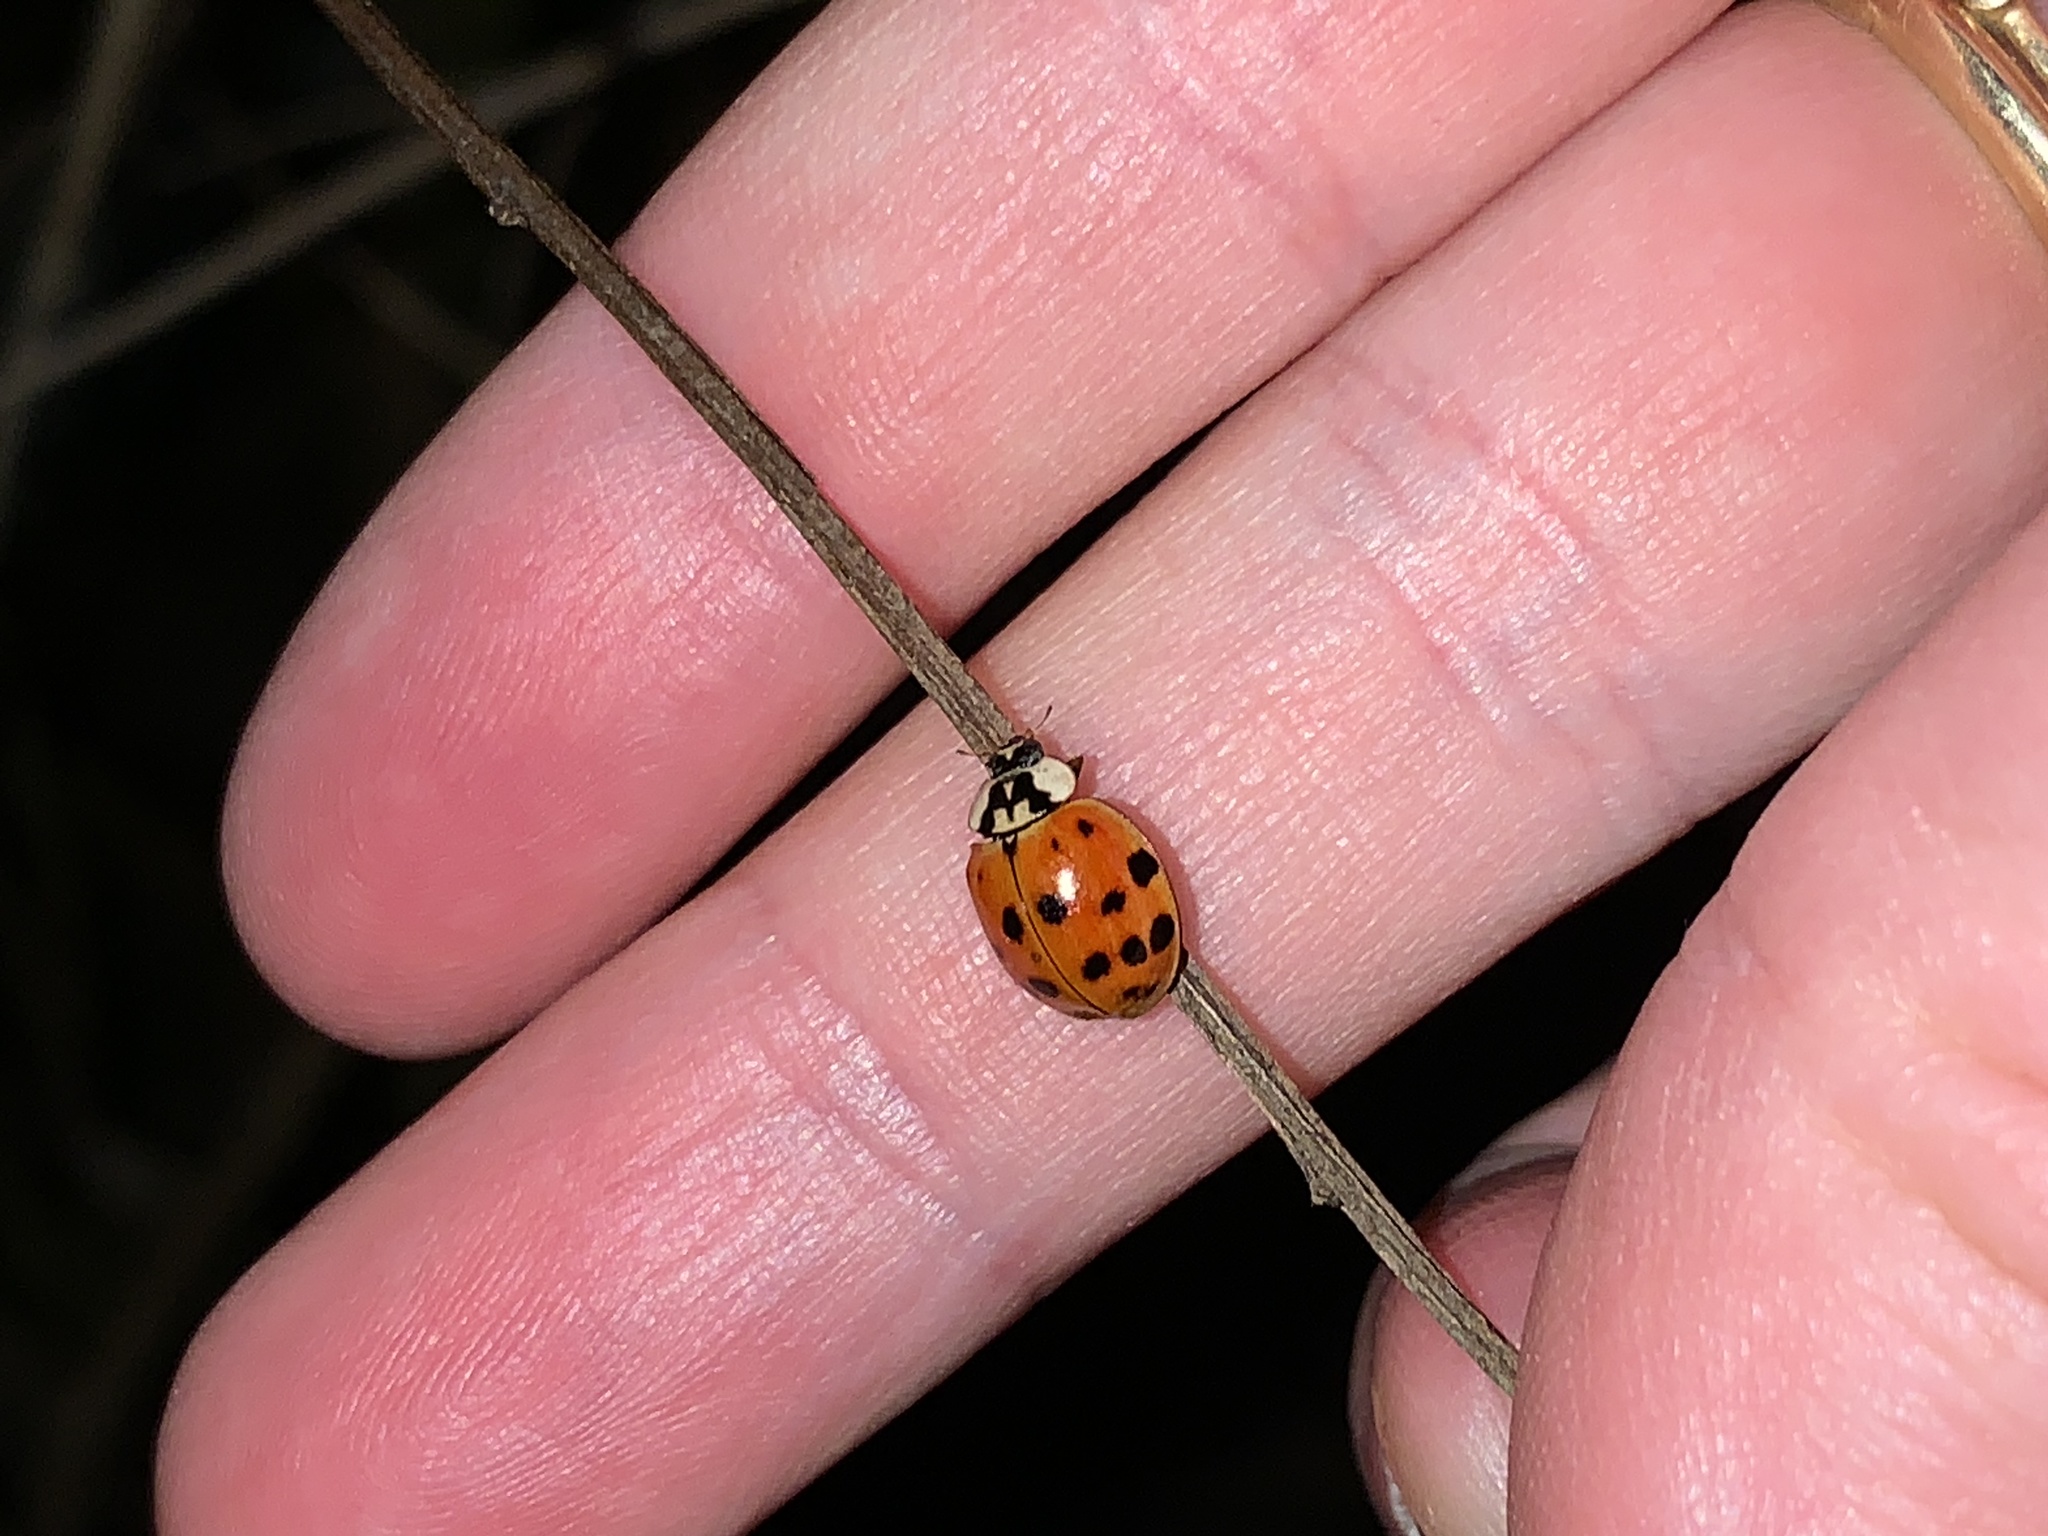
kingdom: Animalia
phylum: Arthropoda
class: Insecta
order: Coleoptera
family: Coccinellidae
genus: Harmonia
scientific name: Harmonia axyridis
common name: Harlequin ladybird
